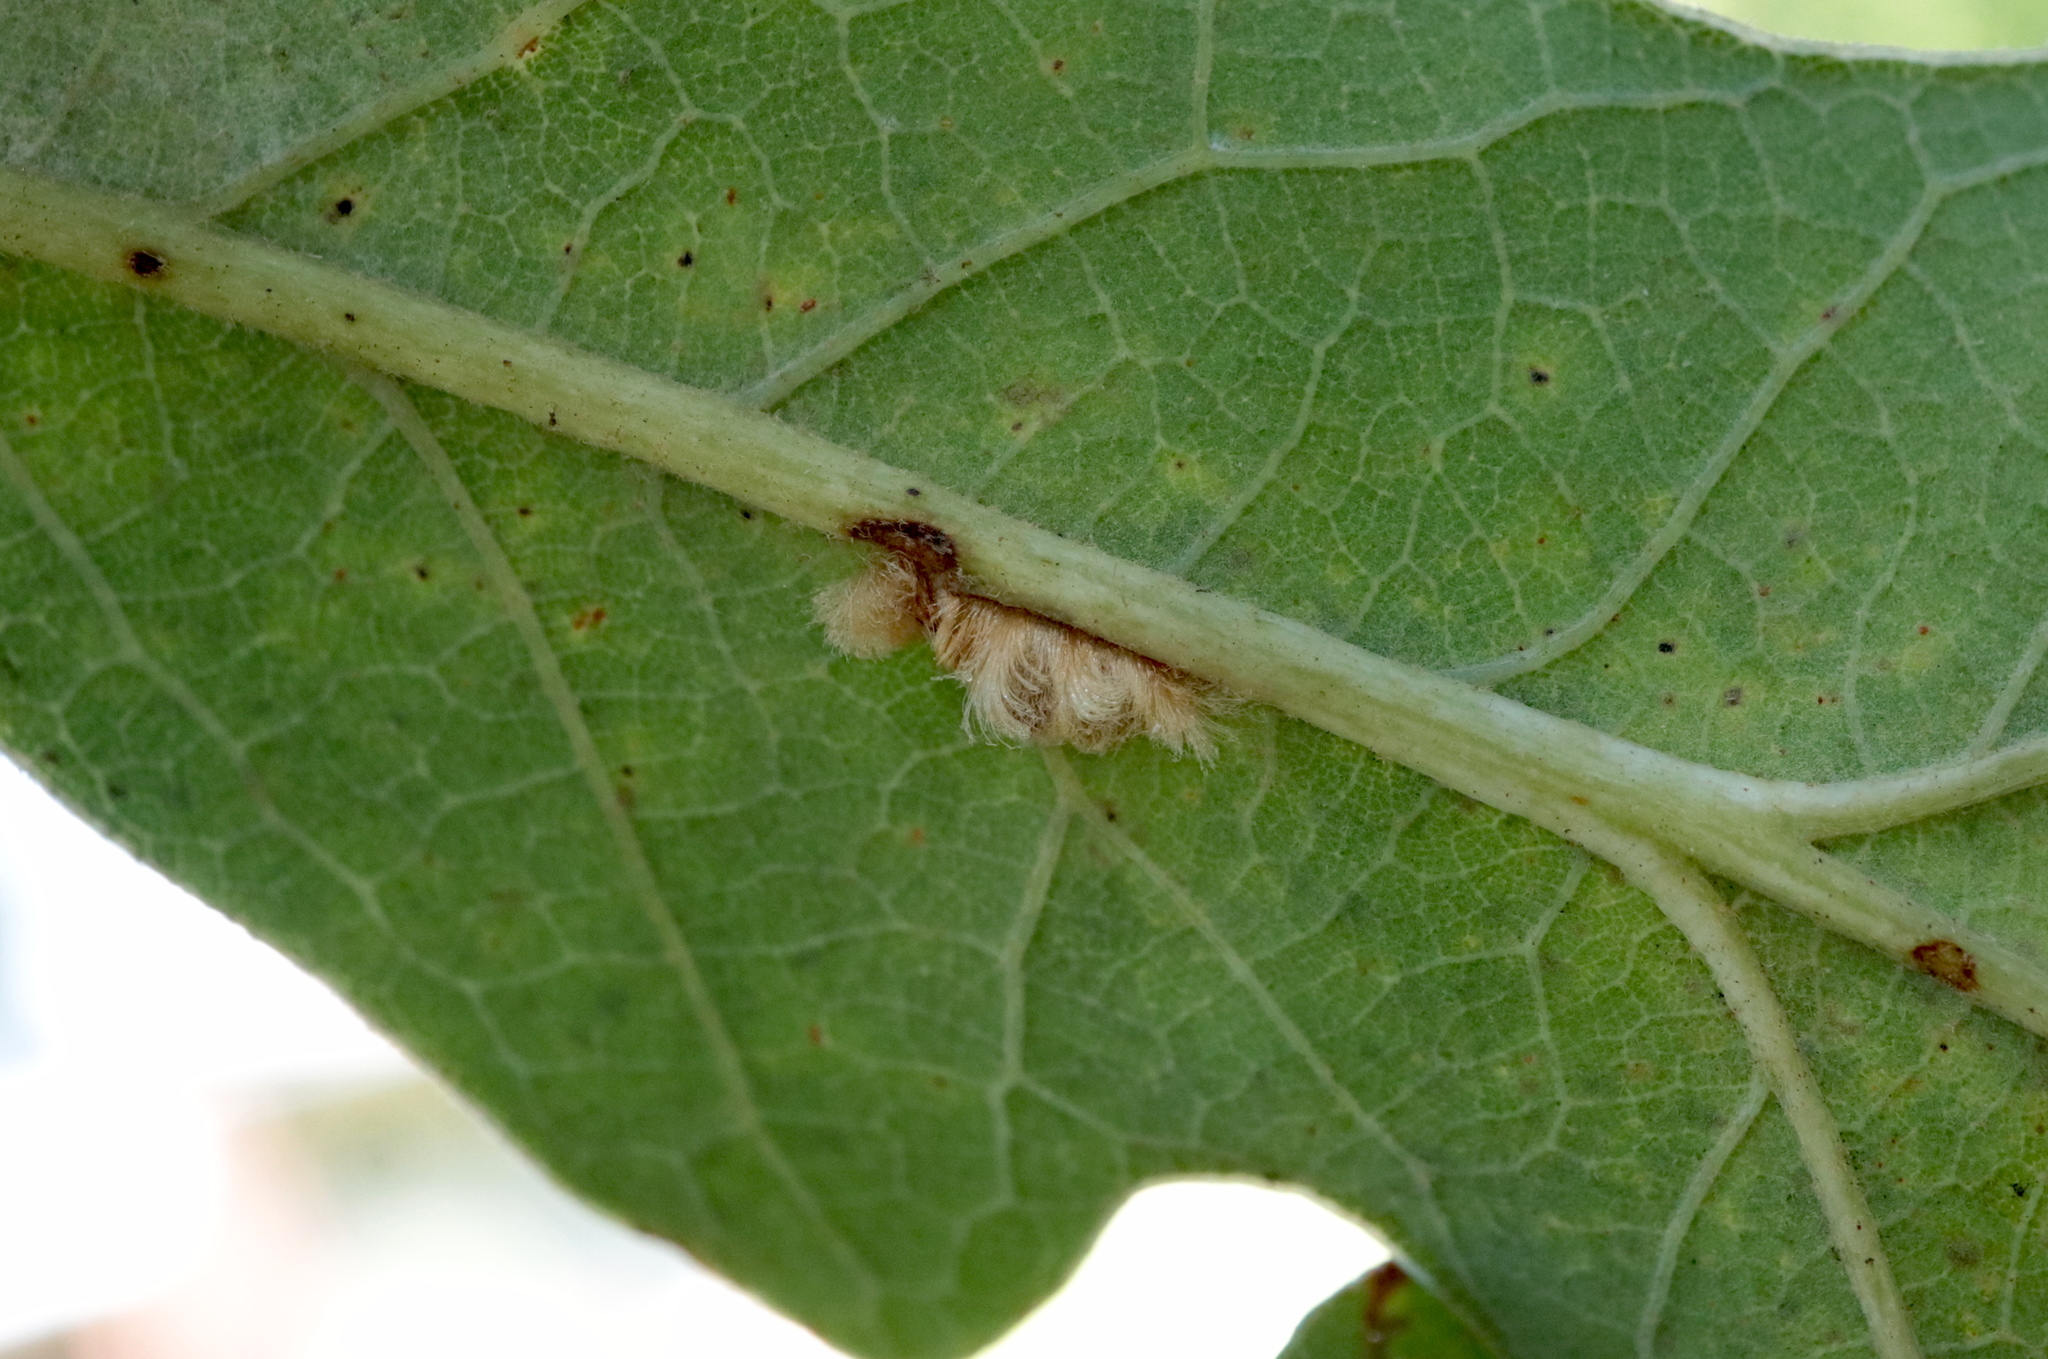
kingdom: Animalia
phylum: Arthropoda
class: Insecta
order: Hymenoptera
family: Cynipidae
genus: Andricus
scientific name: Andricus Druon pattoni
